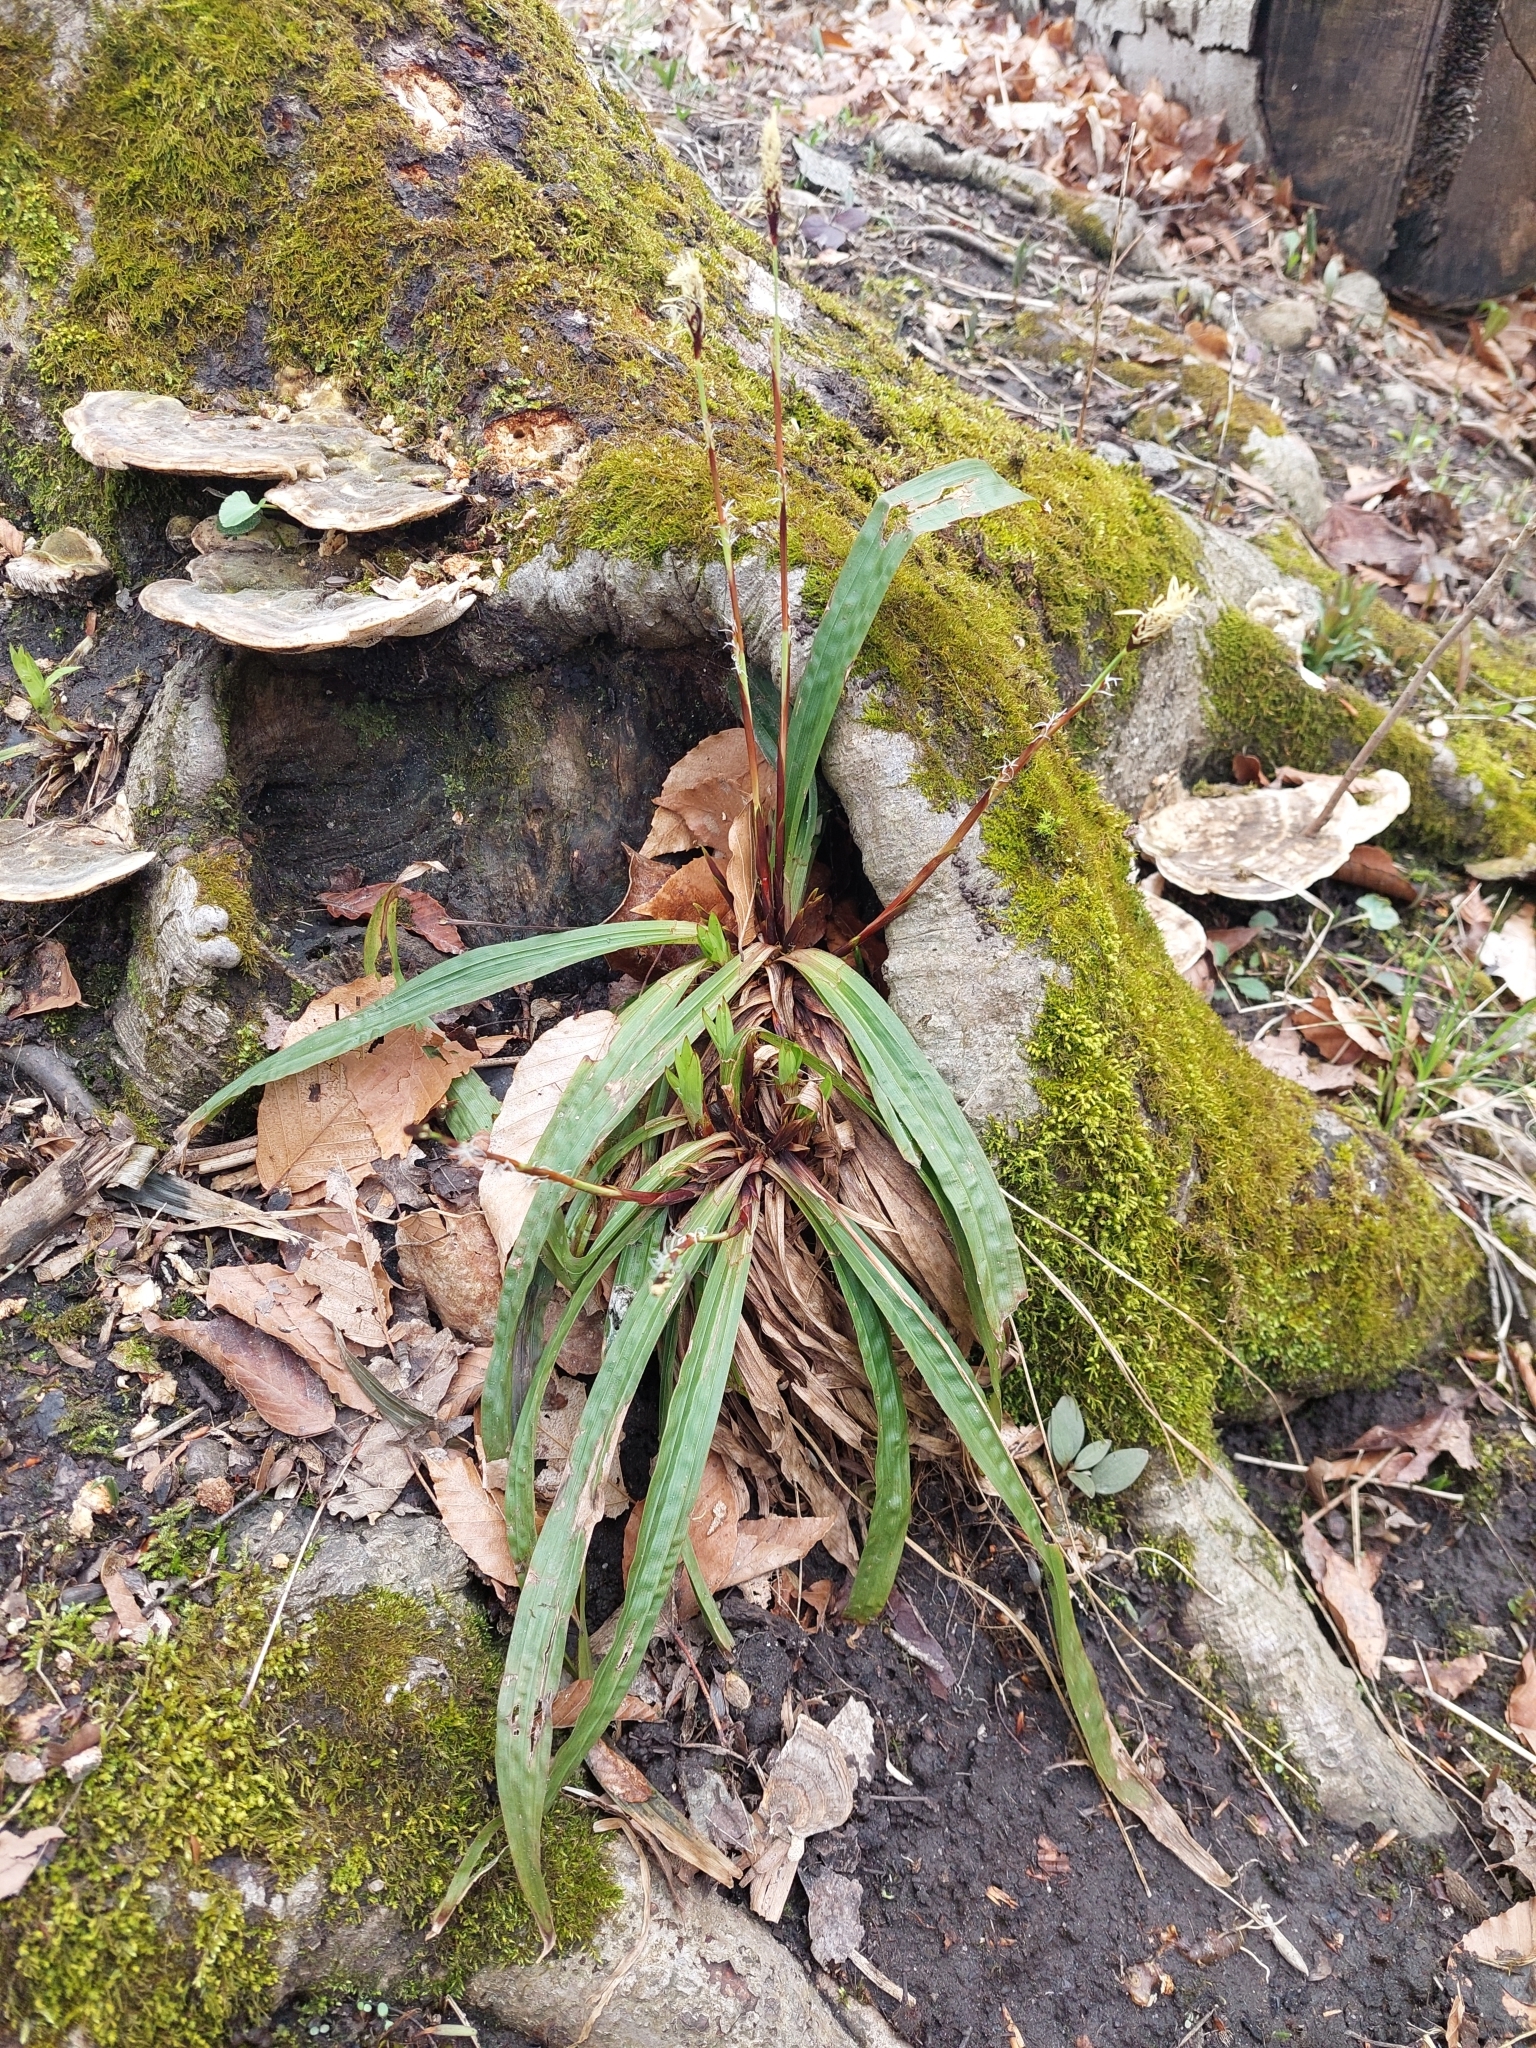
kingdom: Plantae
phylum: Tracheophyta
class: Liliopsida
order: Poales
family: Cyperaceae
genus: Carex
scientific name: Carex plantaginea
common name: Plantain-leaved sedge
